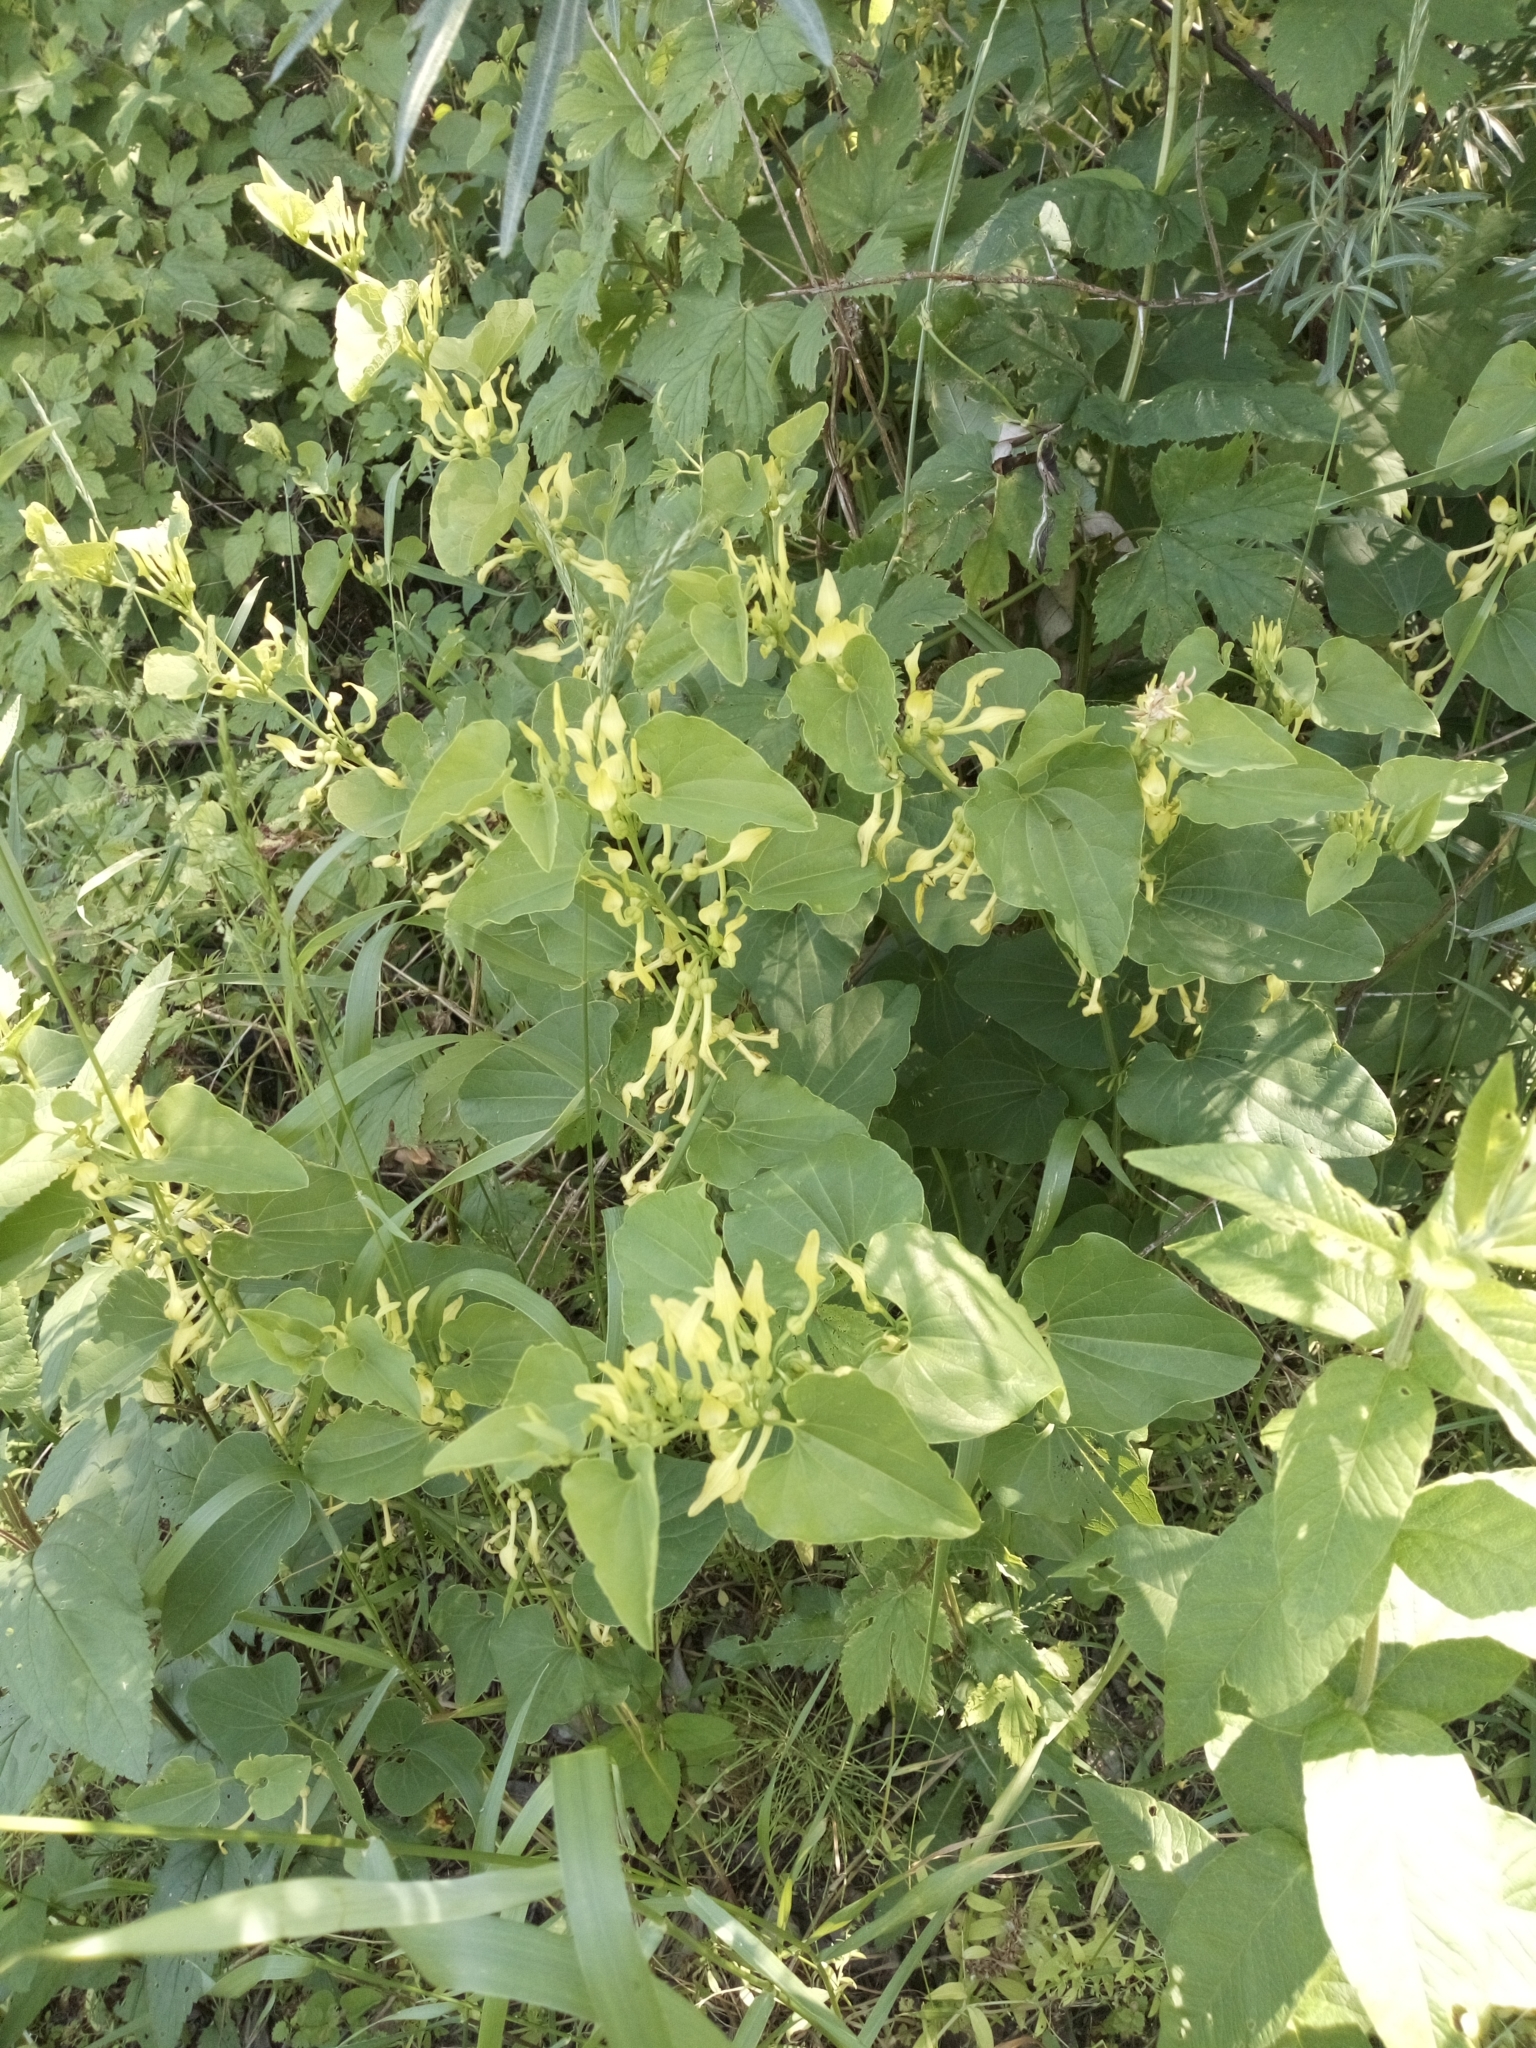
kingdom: Plantae
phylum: Tracheophyta
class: Magnoliopsida
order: Piperales
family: Aristolochiaceae
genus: Aristolochia
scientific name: Aristolochia clematitis
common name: Birthwort
